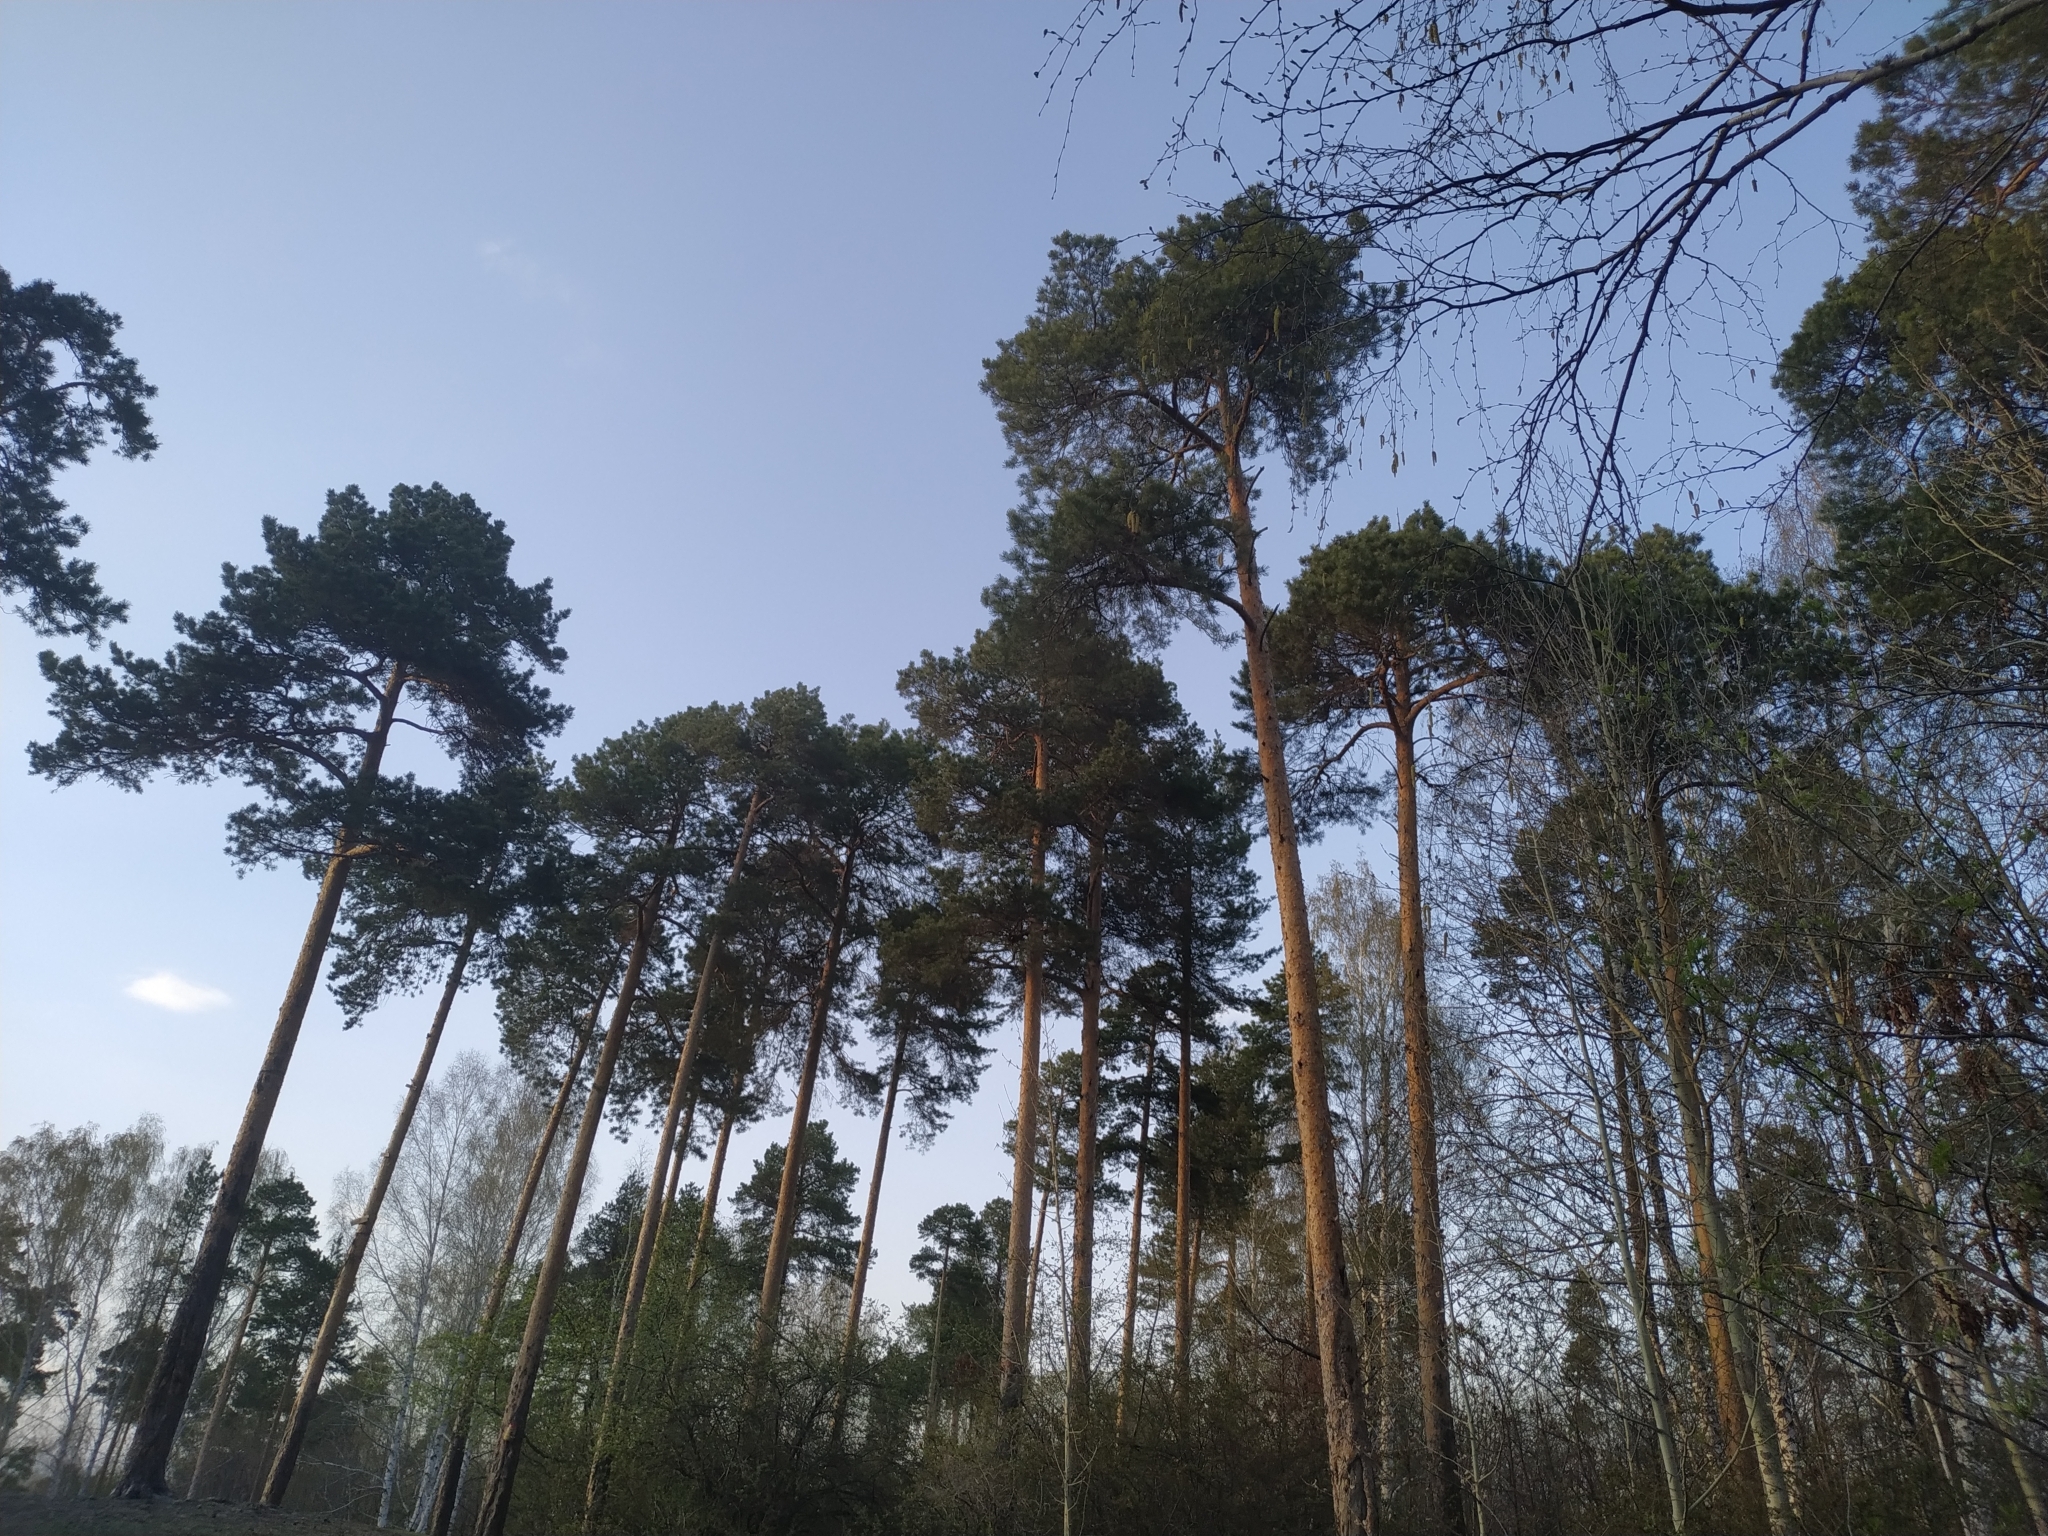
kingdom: Plantae
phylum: Tracheophyta
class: Pinopsida
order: Pinales
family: Pinaceae
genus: Pinus
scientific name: Pinus sylvestris
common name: Scots pine
